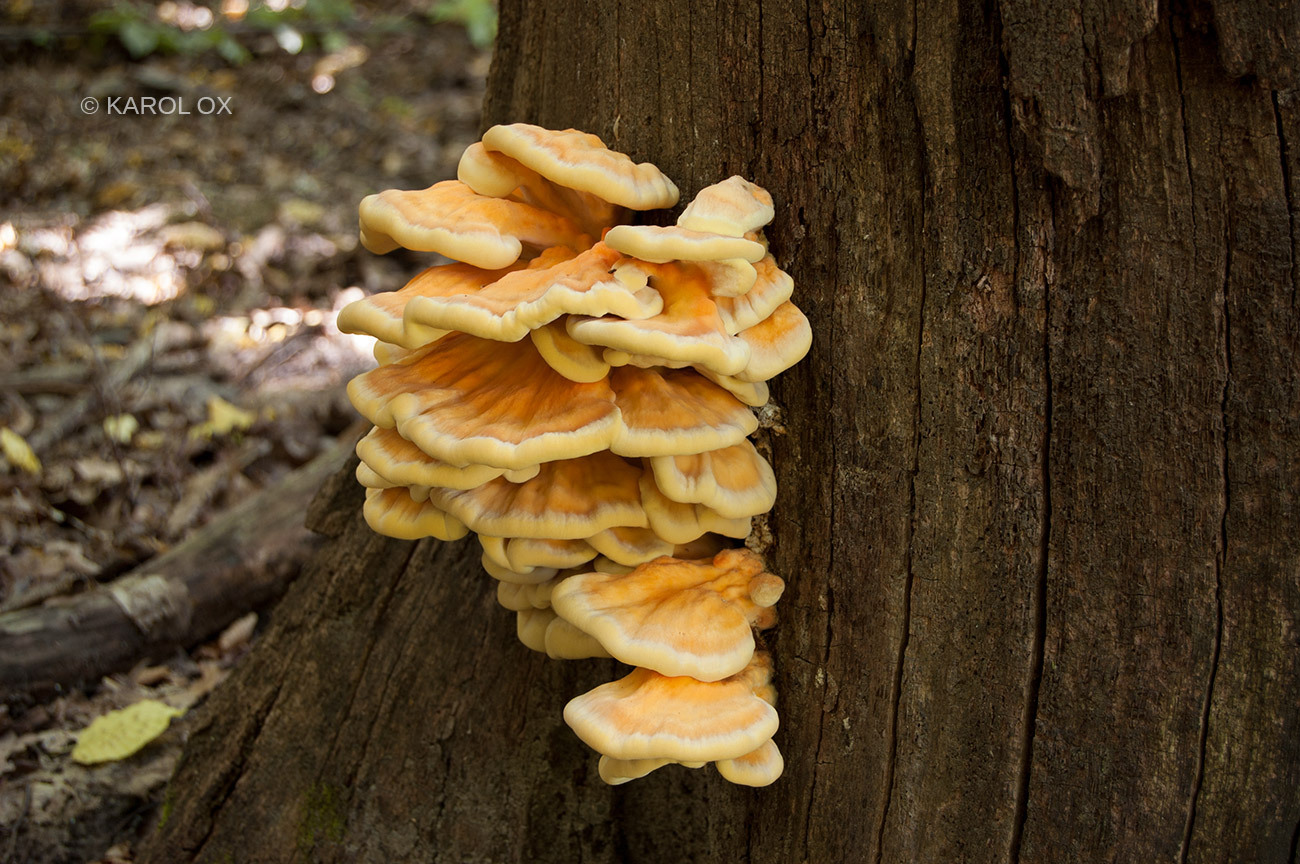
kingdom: Fungi
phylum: Basidiomycota
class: Agaricomycetes
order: Polyporales
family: Laetiporaceae
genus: Laetiporus
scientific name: Laetiporus sulphureus
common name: Chicken of the woods
